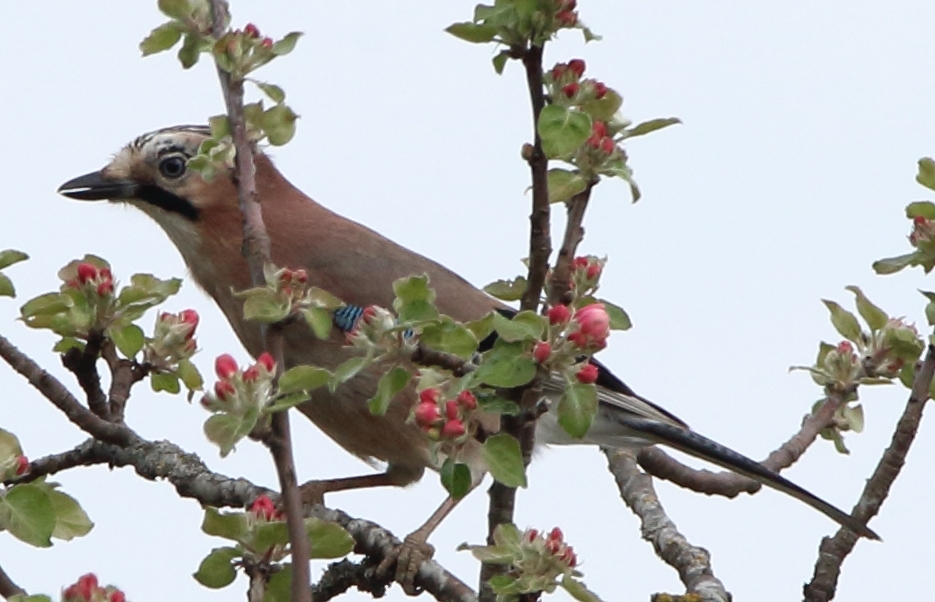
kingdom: Animalia
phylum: Chordata
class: Aves
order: Passeriformes
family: Corvidae
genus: Garrulus
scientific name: Garrulus glandarius
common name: Eurasian jay
